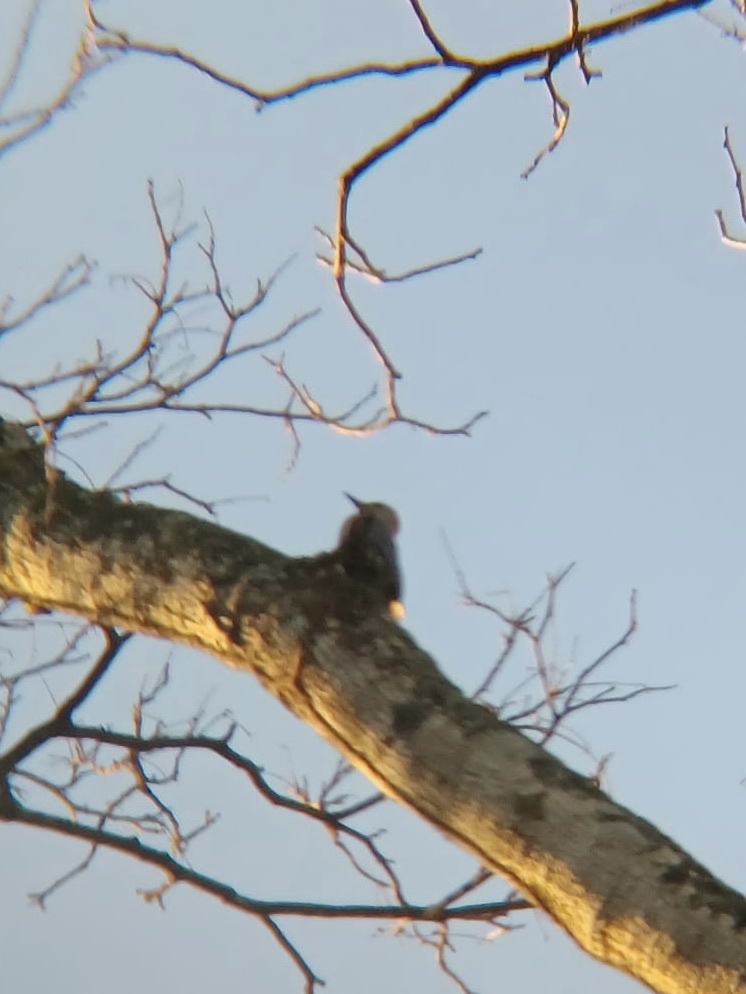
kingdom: Animalia
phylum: Chordata
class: Aves
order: Piciformes
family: Picidae
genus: Melanerpes
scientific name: Melanerpes aurifrons
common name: Golden-fronted woodpecker
